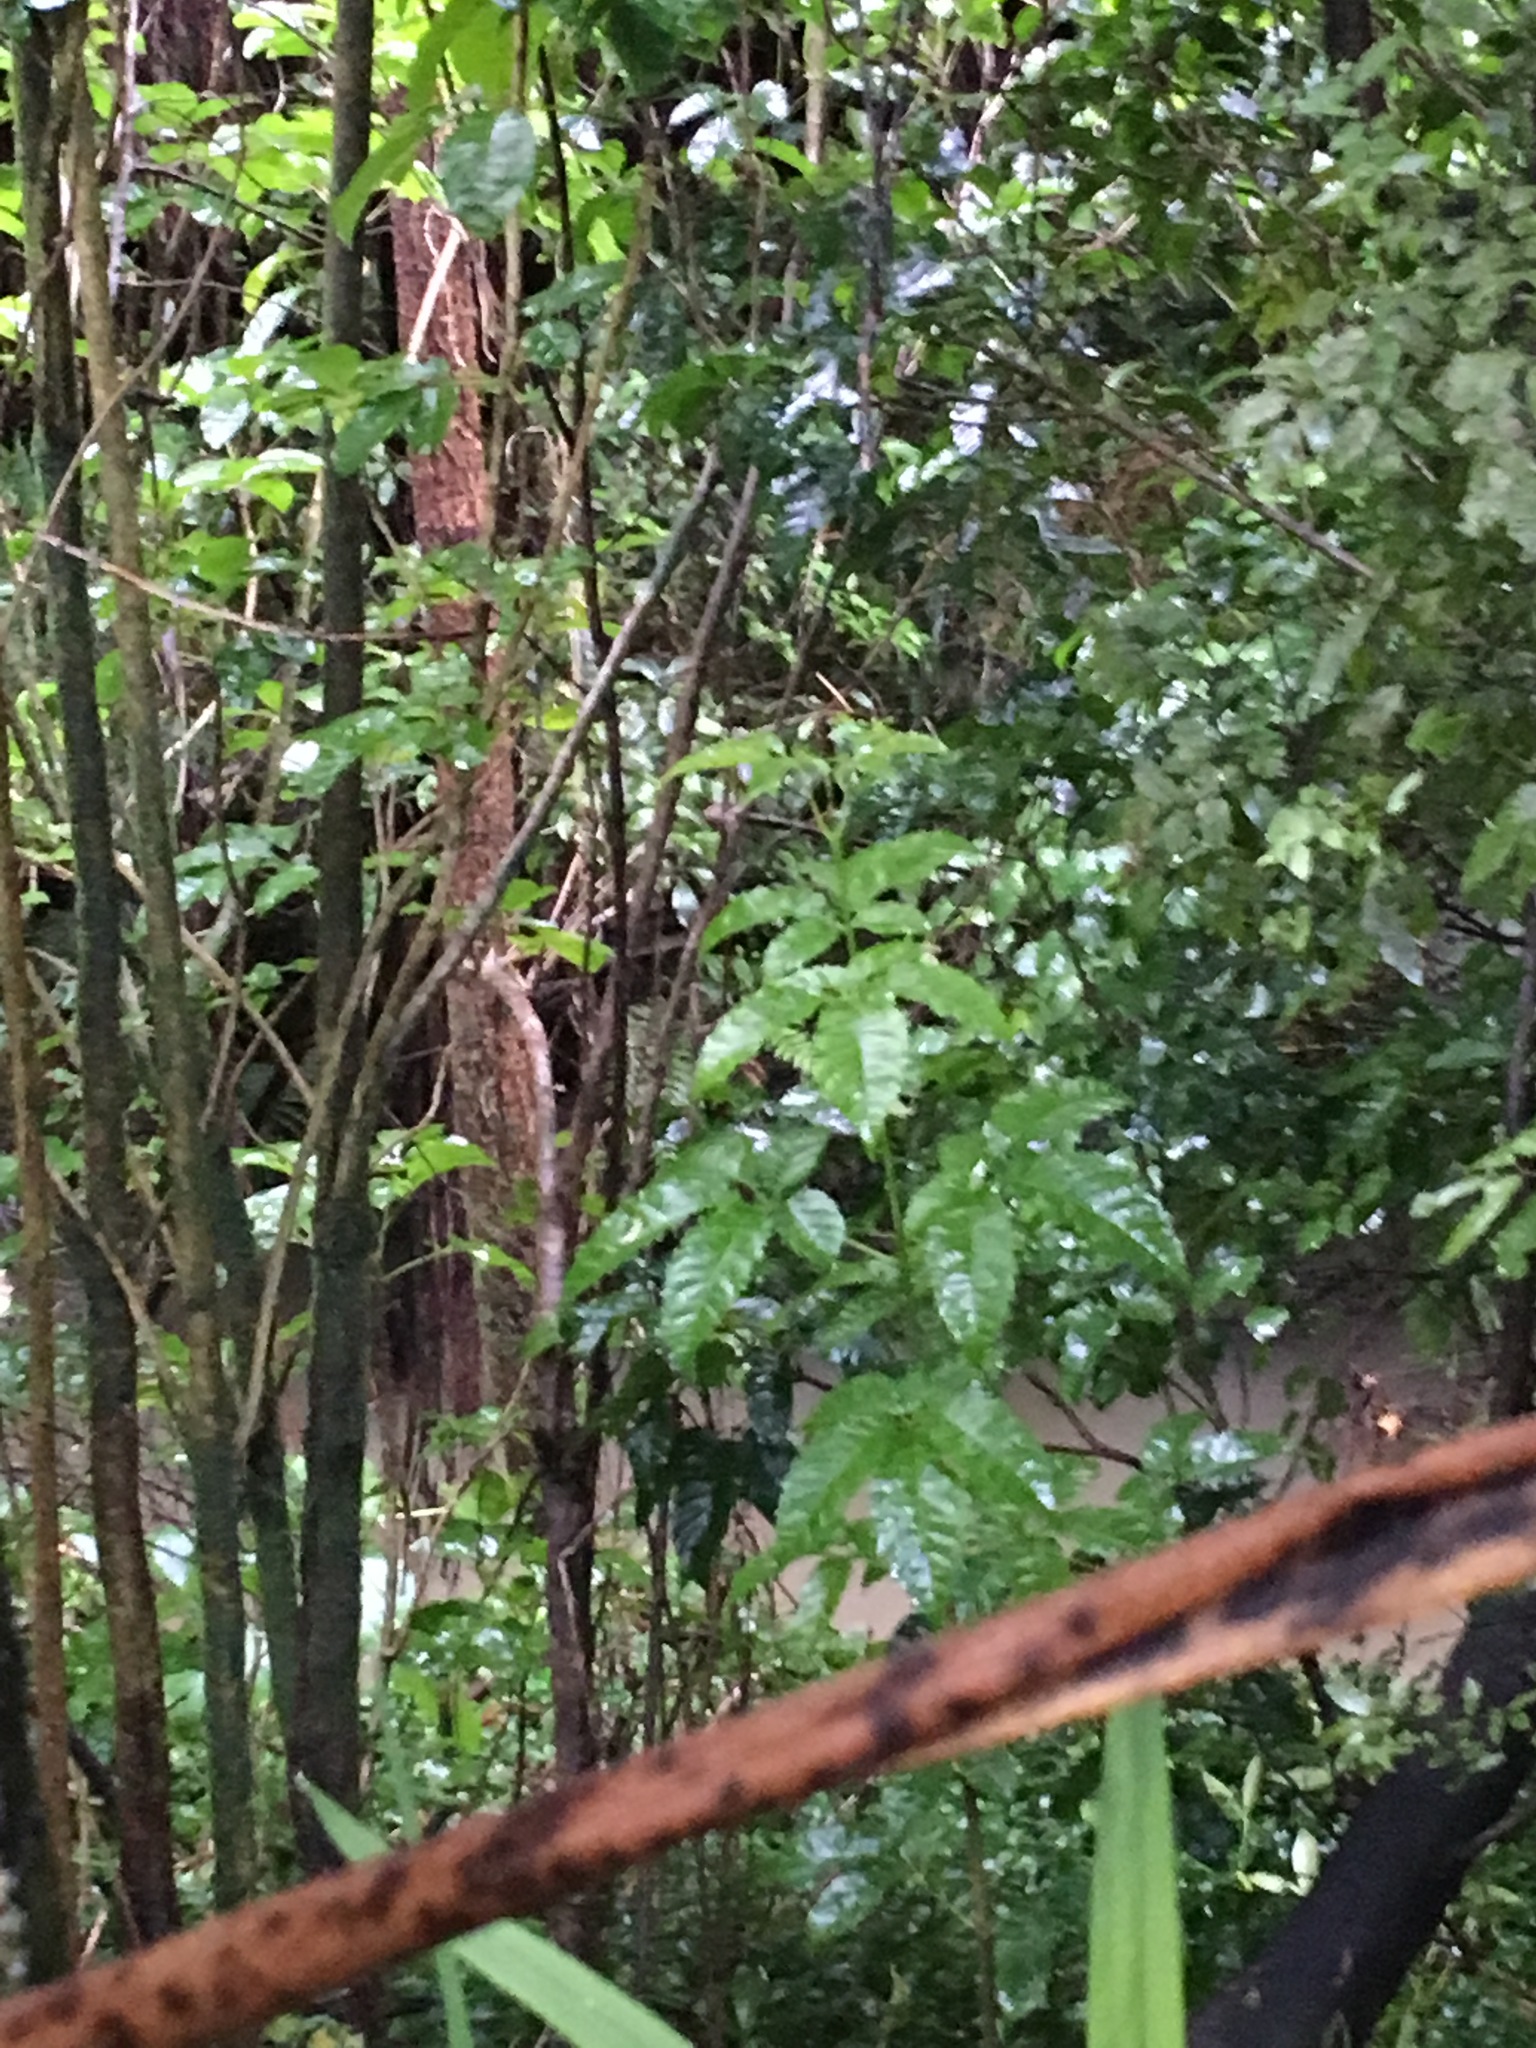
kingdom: Plantae
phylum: Tracheophyta
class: Magnoliopsida
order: Lamiales
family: Lamiaceae
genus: Vitex
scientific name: Vitex lucens
